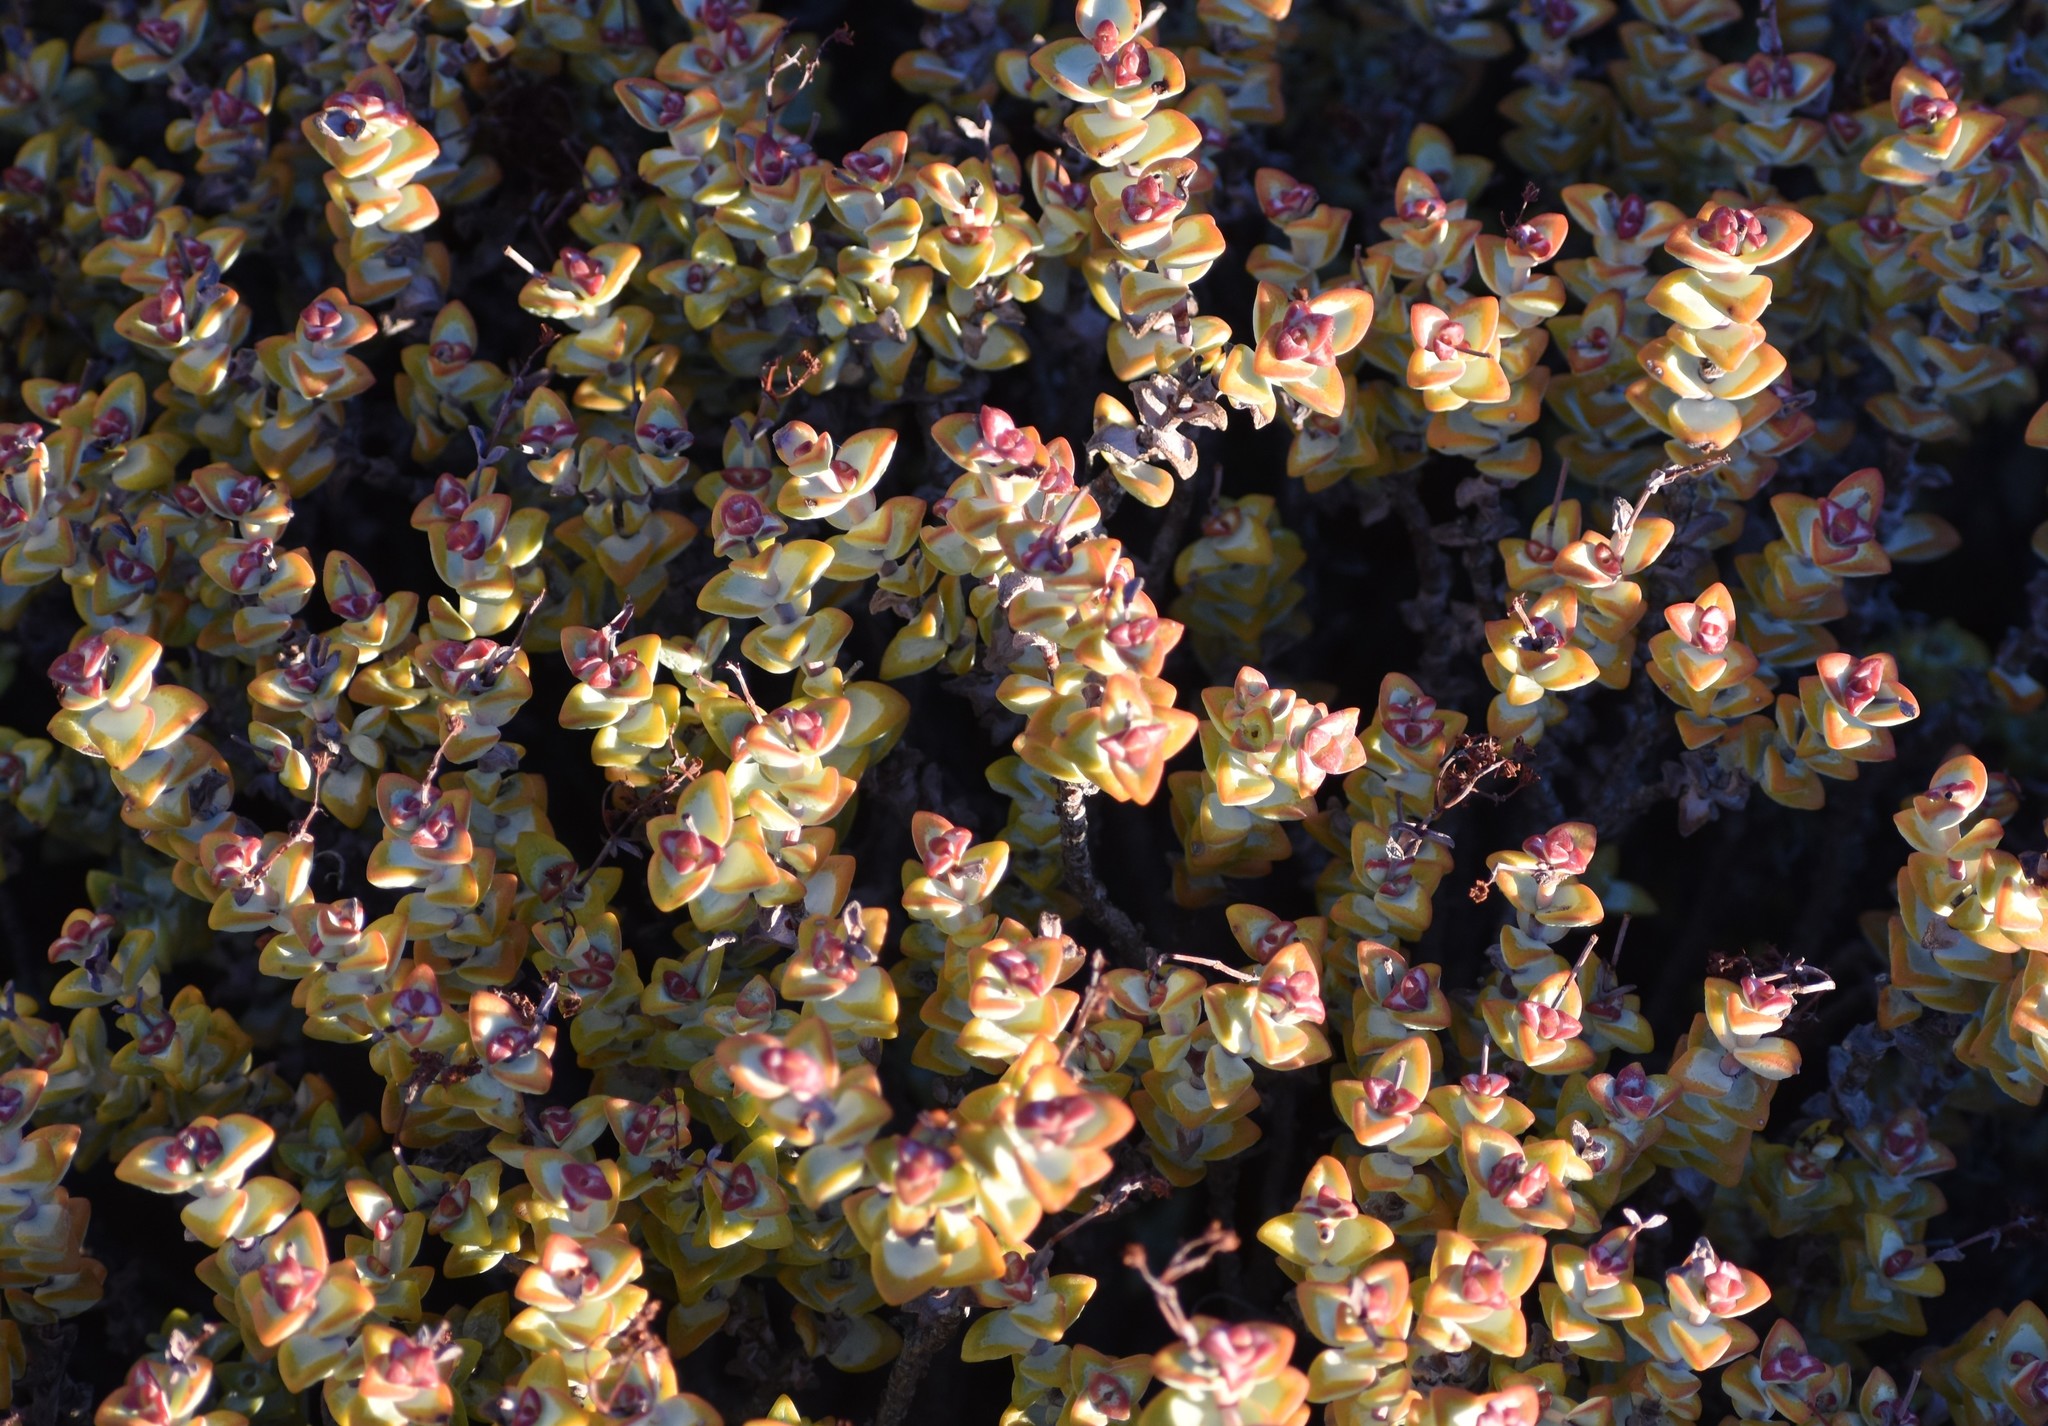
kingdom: Plantae
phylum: Tracheophyta
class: Magnoliopsida
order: Saxifragales
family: Crassulaceae
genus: Crassula
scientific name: Crassula rupestris
